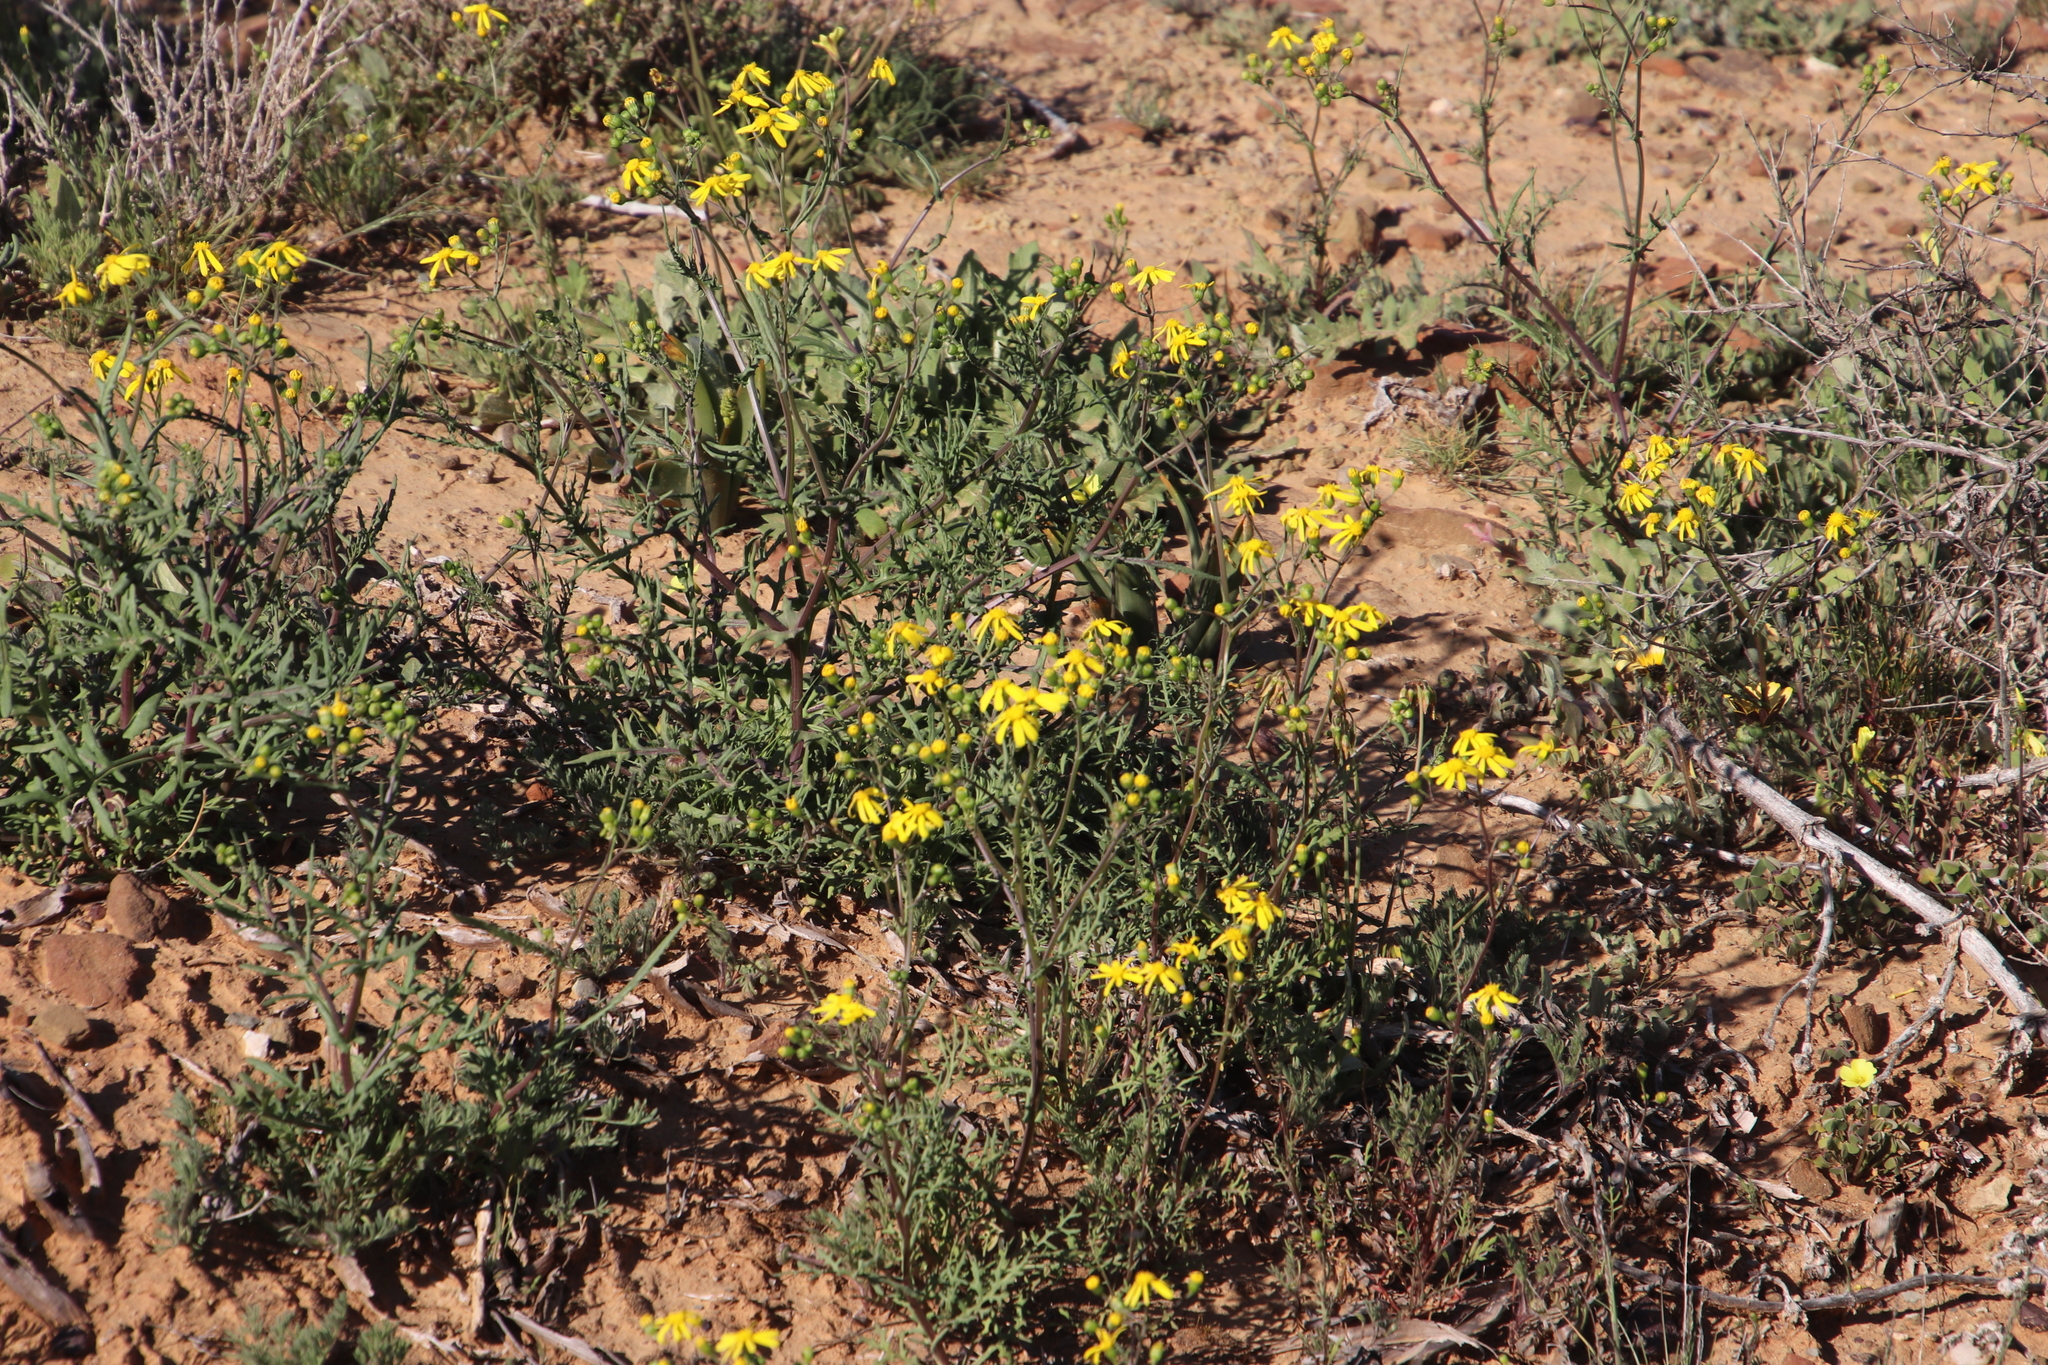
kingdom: Plantae
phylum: Tracheophyta
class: Magnoliopsida
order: Asterales
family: Asteraceae
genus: Senecio
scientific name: Senecio abruptus
